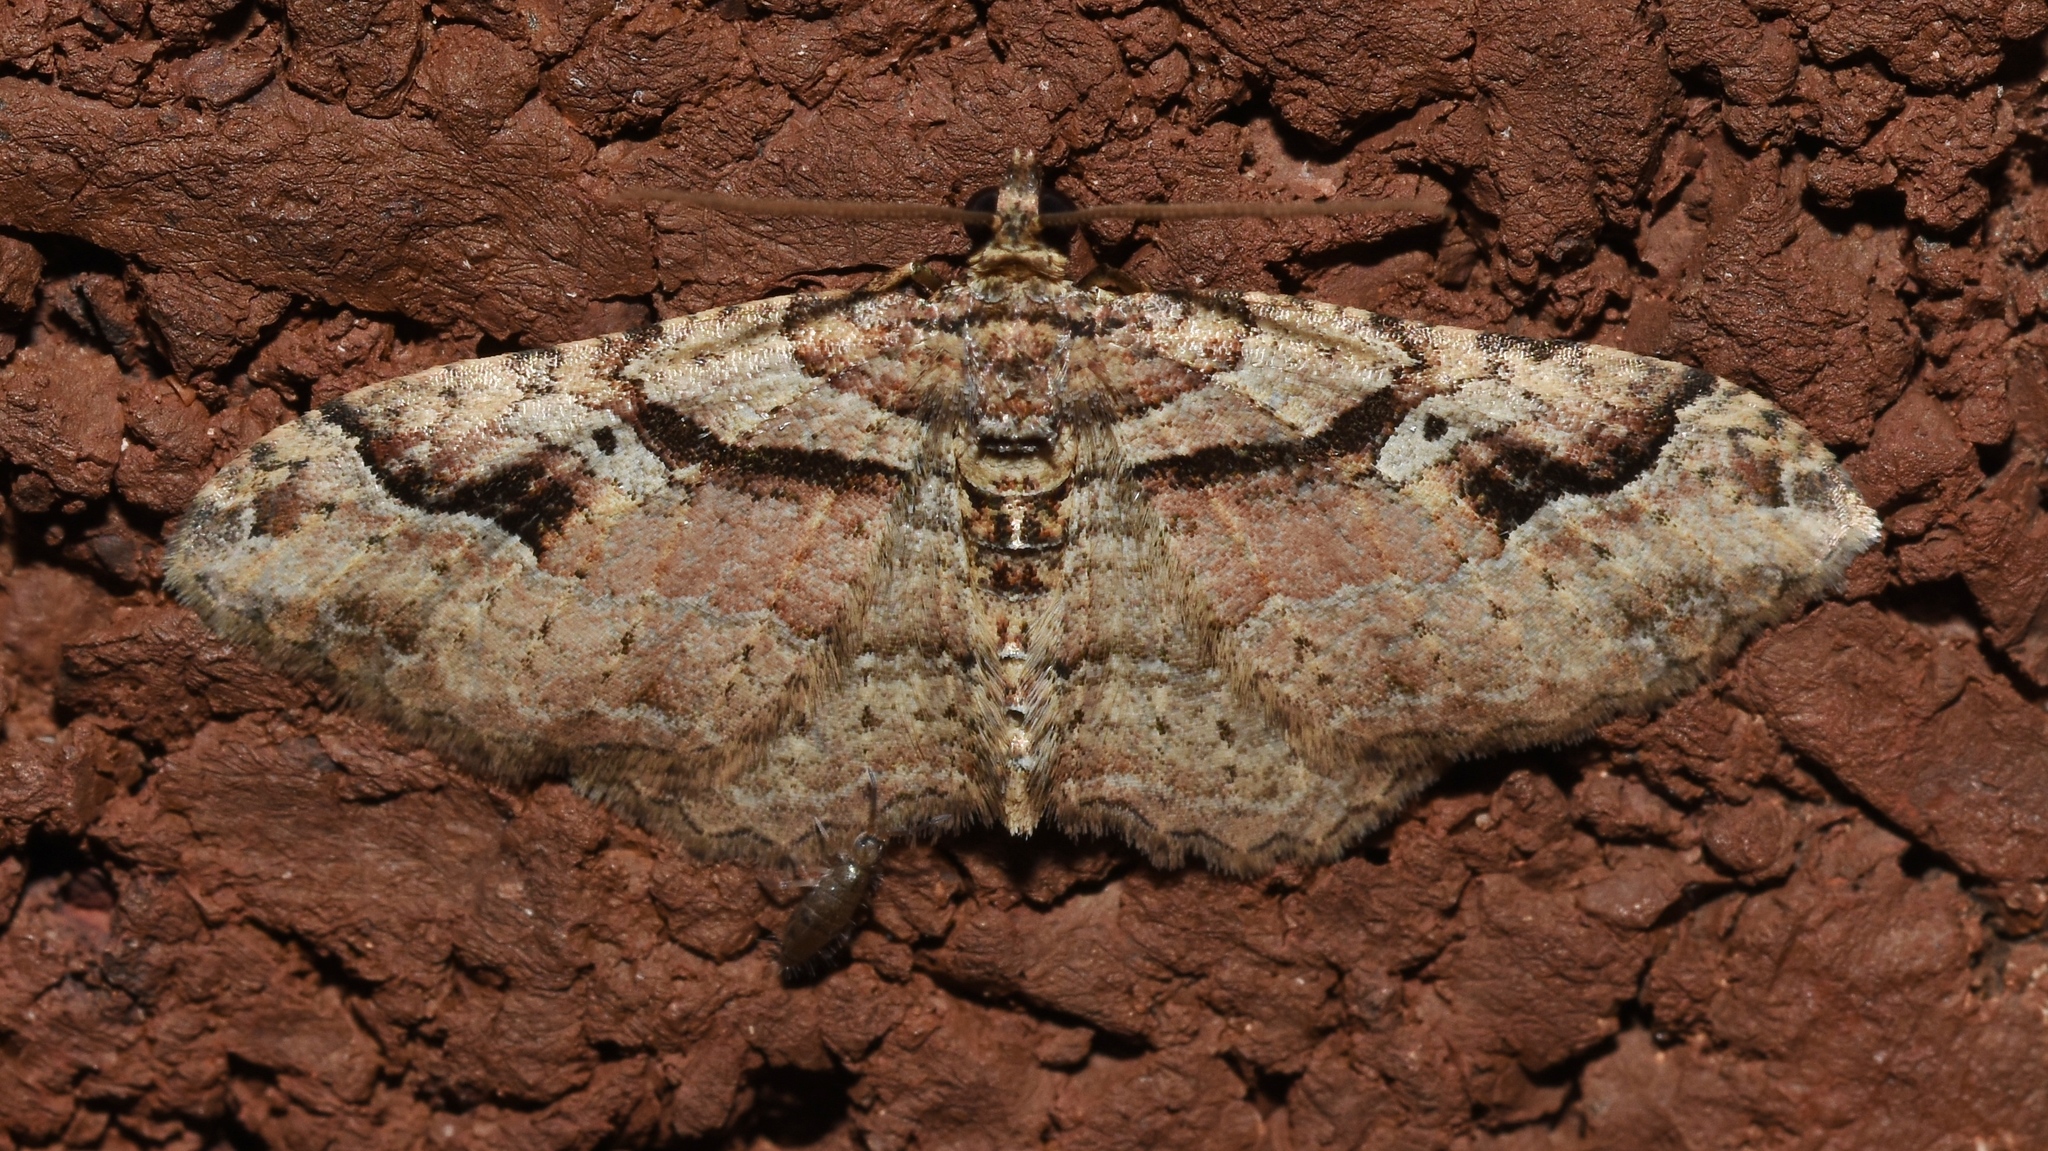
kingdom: Animalia
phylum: Arthropoda
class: Insecta
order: Lepidoptera
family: Geometridae
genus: Costaconvexa
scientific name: Costaconvexa centrostrigaria
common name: Bent-line carpet
